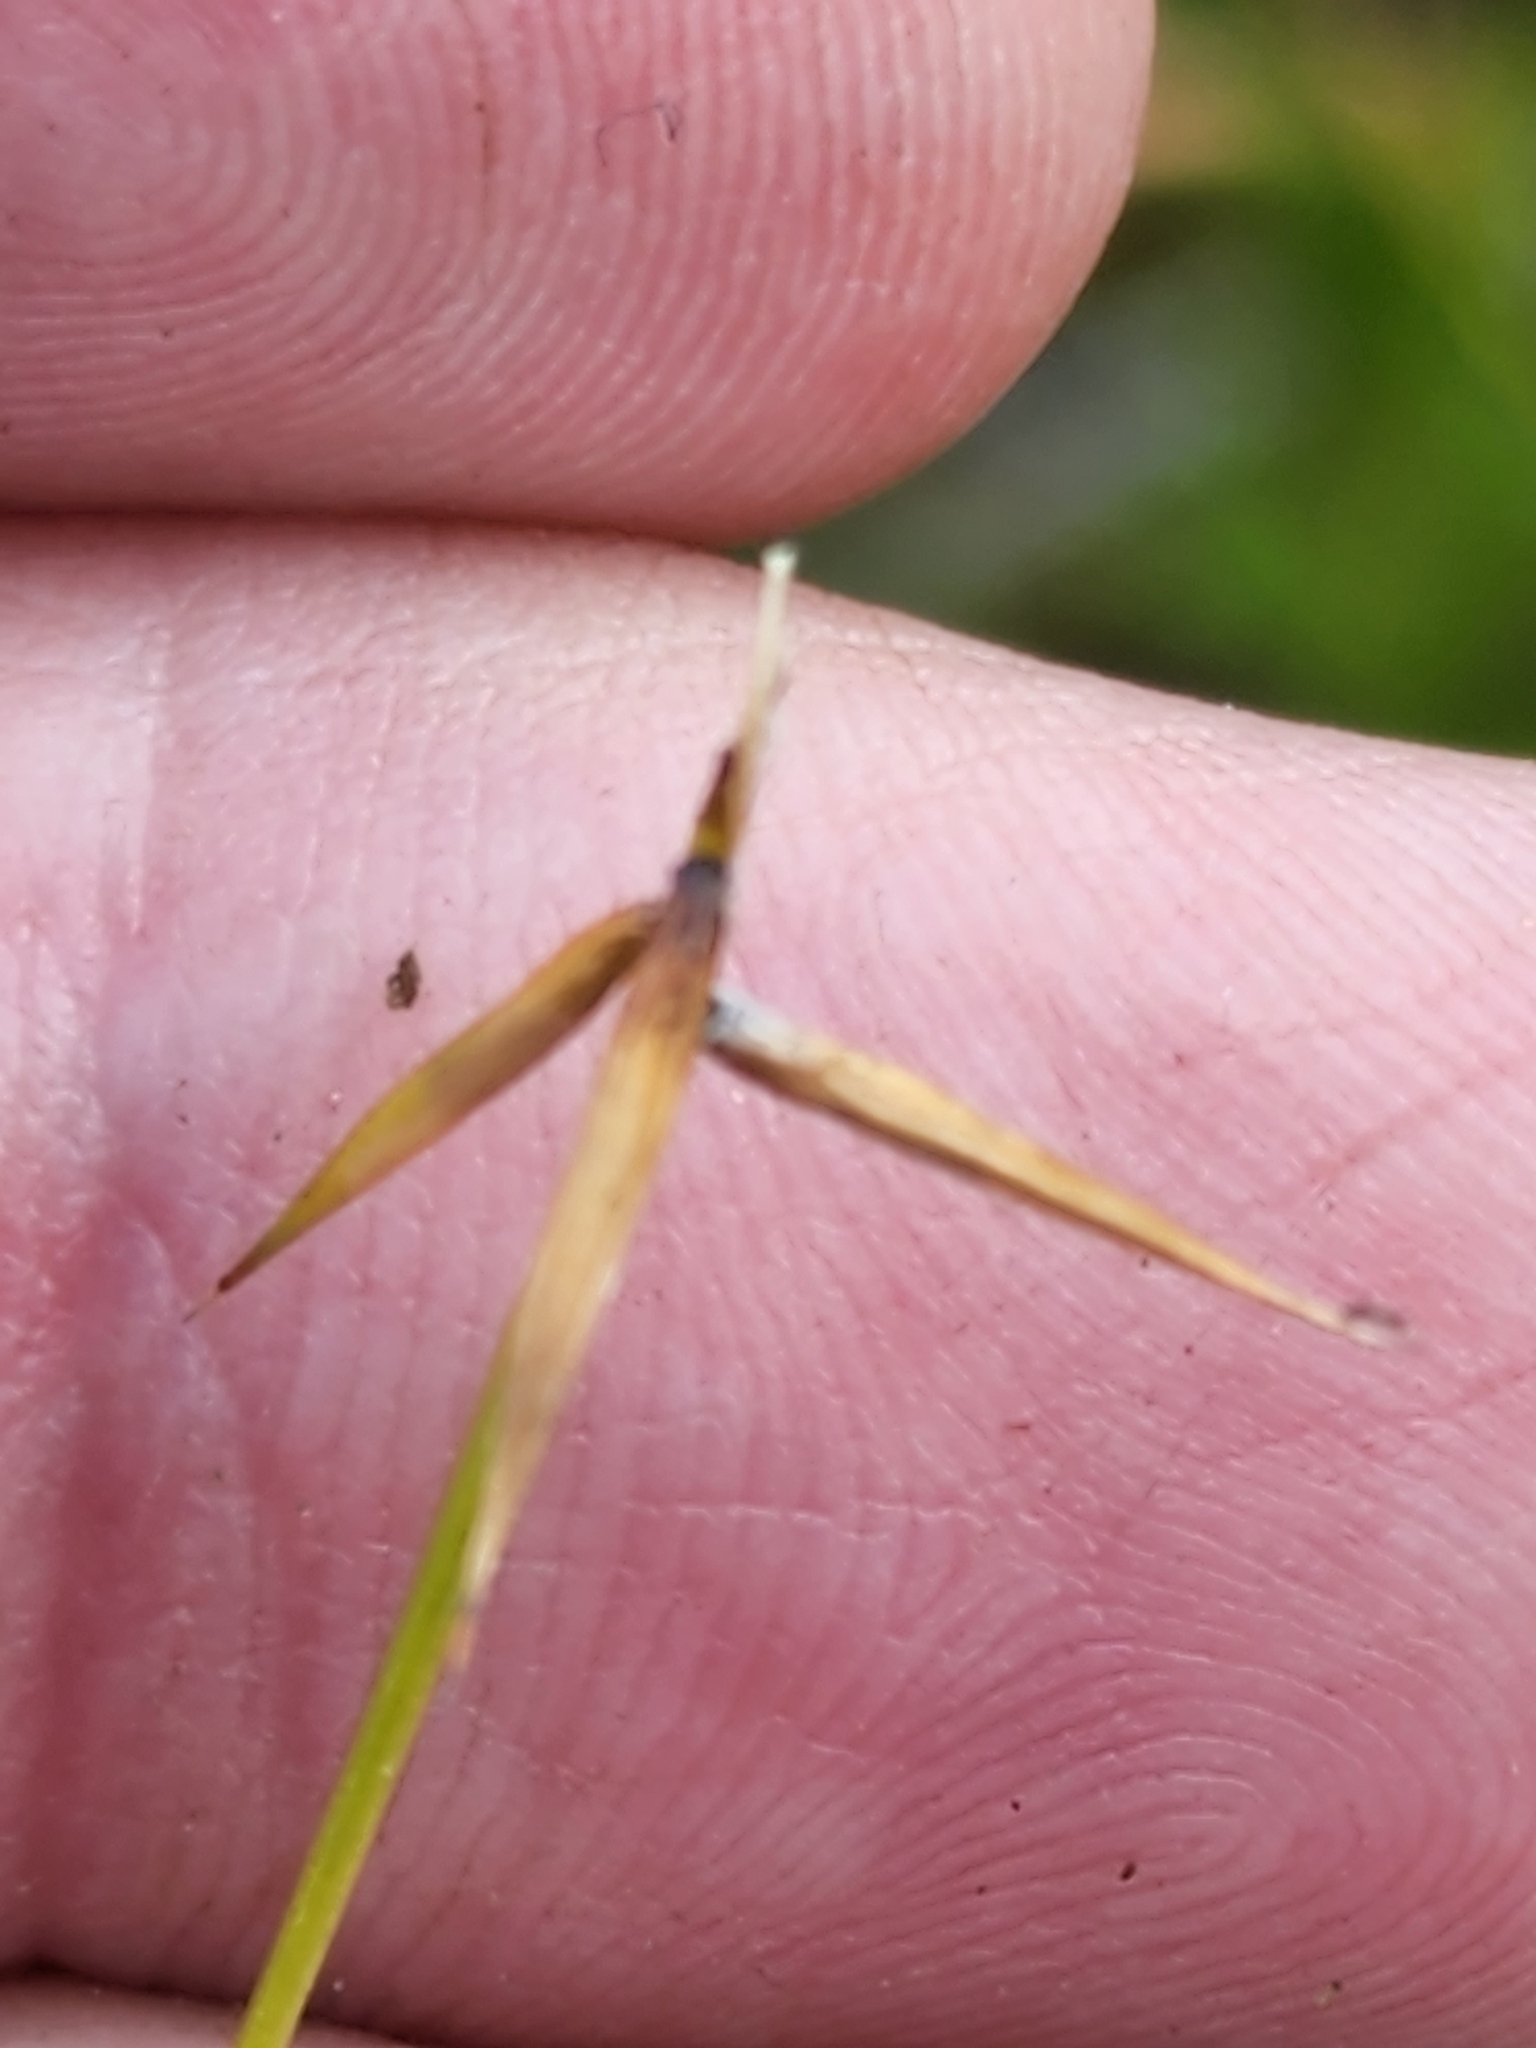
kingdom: Plantae
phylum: Tracheophyta
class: Liliopsida
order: Poales
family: Cyperaceae
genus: Carex
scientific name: Carex pauciflora
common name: Few-flowered sedge
